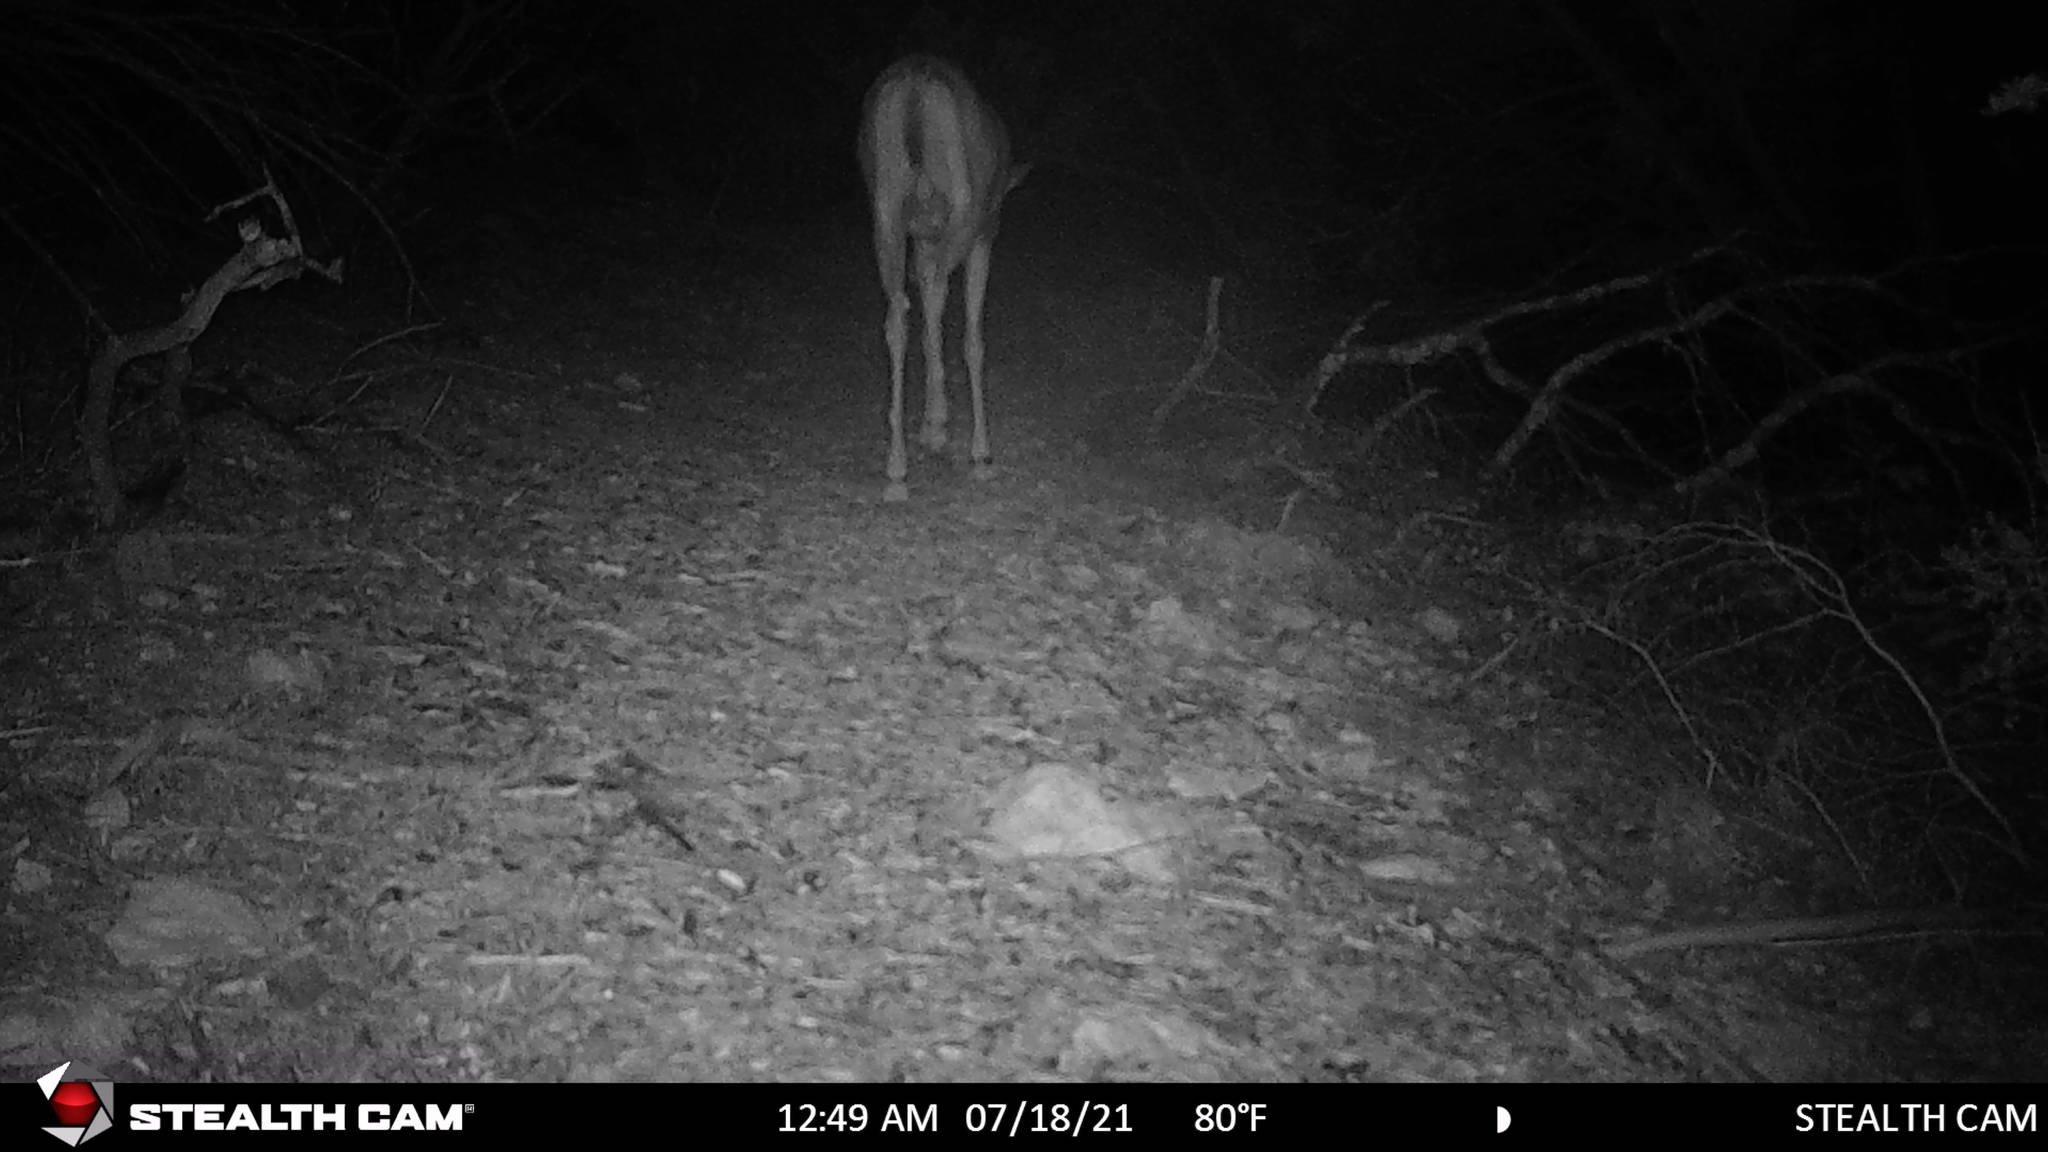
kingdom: Animalia
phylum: Chordata
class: Mammalia
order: Artiodactyla
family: Cervidae
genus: Odocoileus
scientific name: Odocoileus virginianus
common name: White-tailed deer
